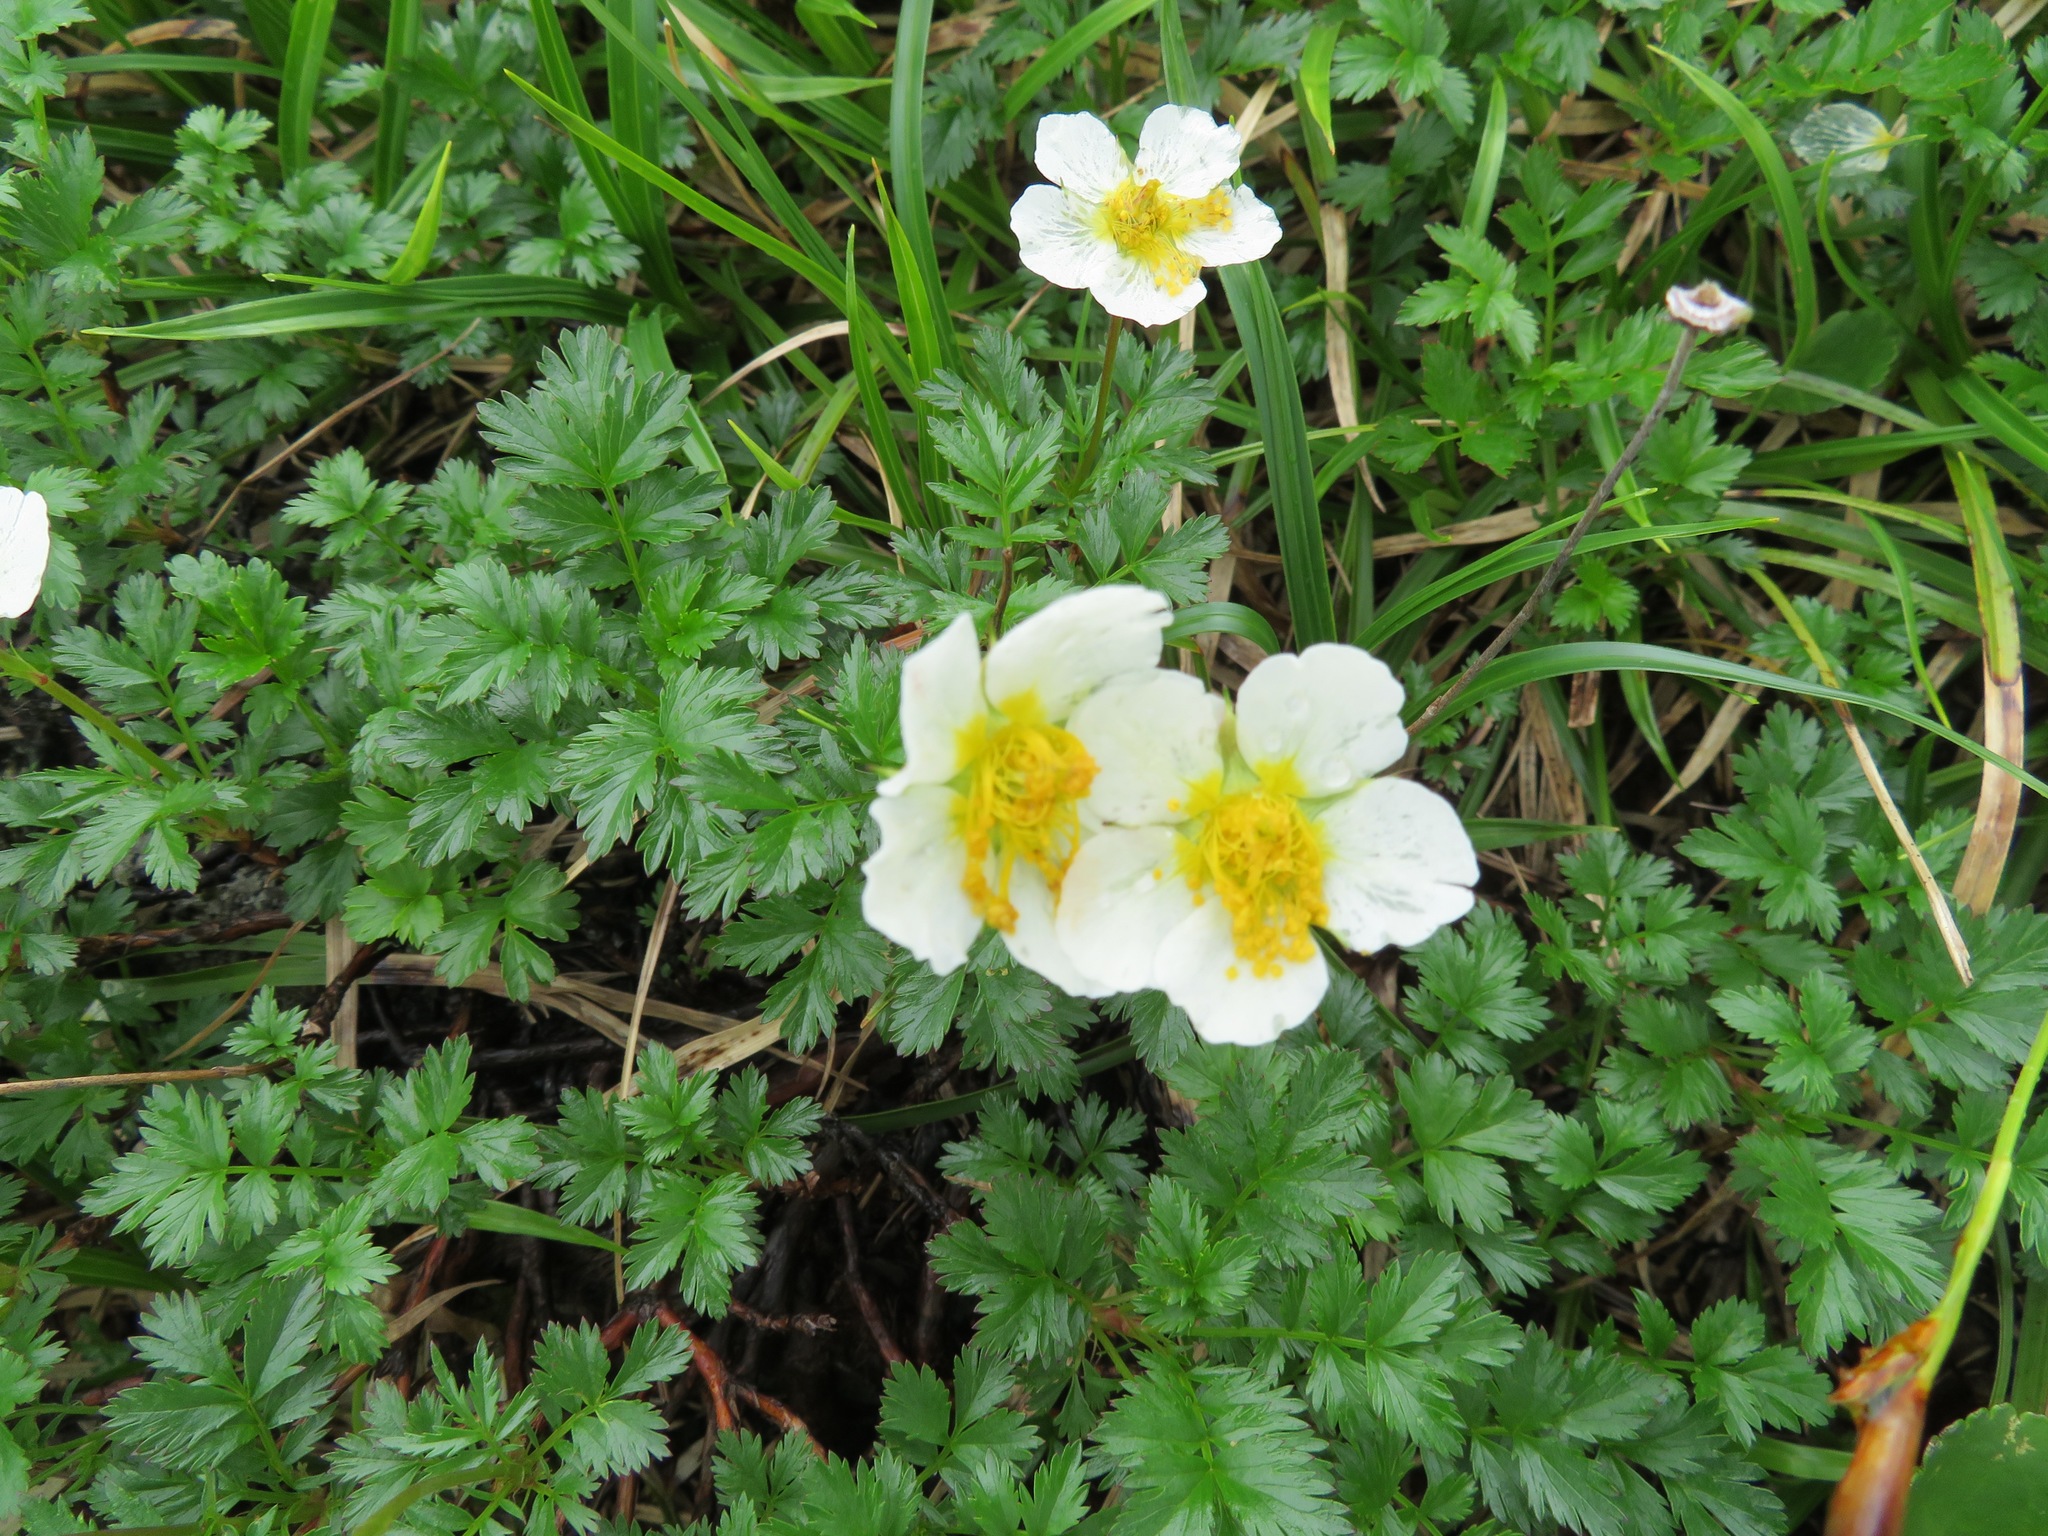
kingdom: Plantae
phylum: Tracheophyta
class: Magnoliopsida
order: Rosales
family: Rosaceae
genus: Geum
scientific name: Geum pentapetalum
